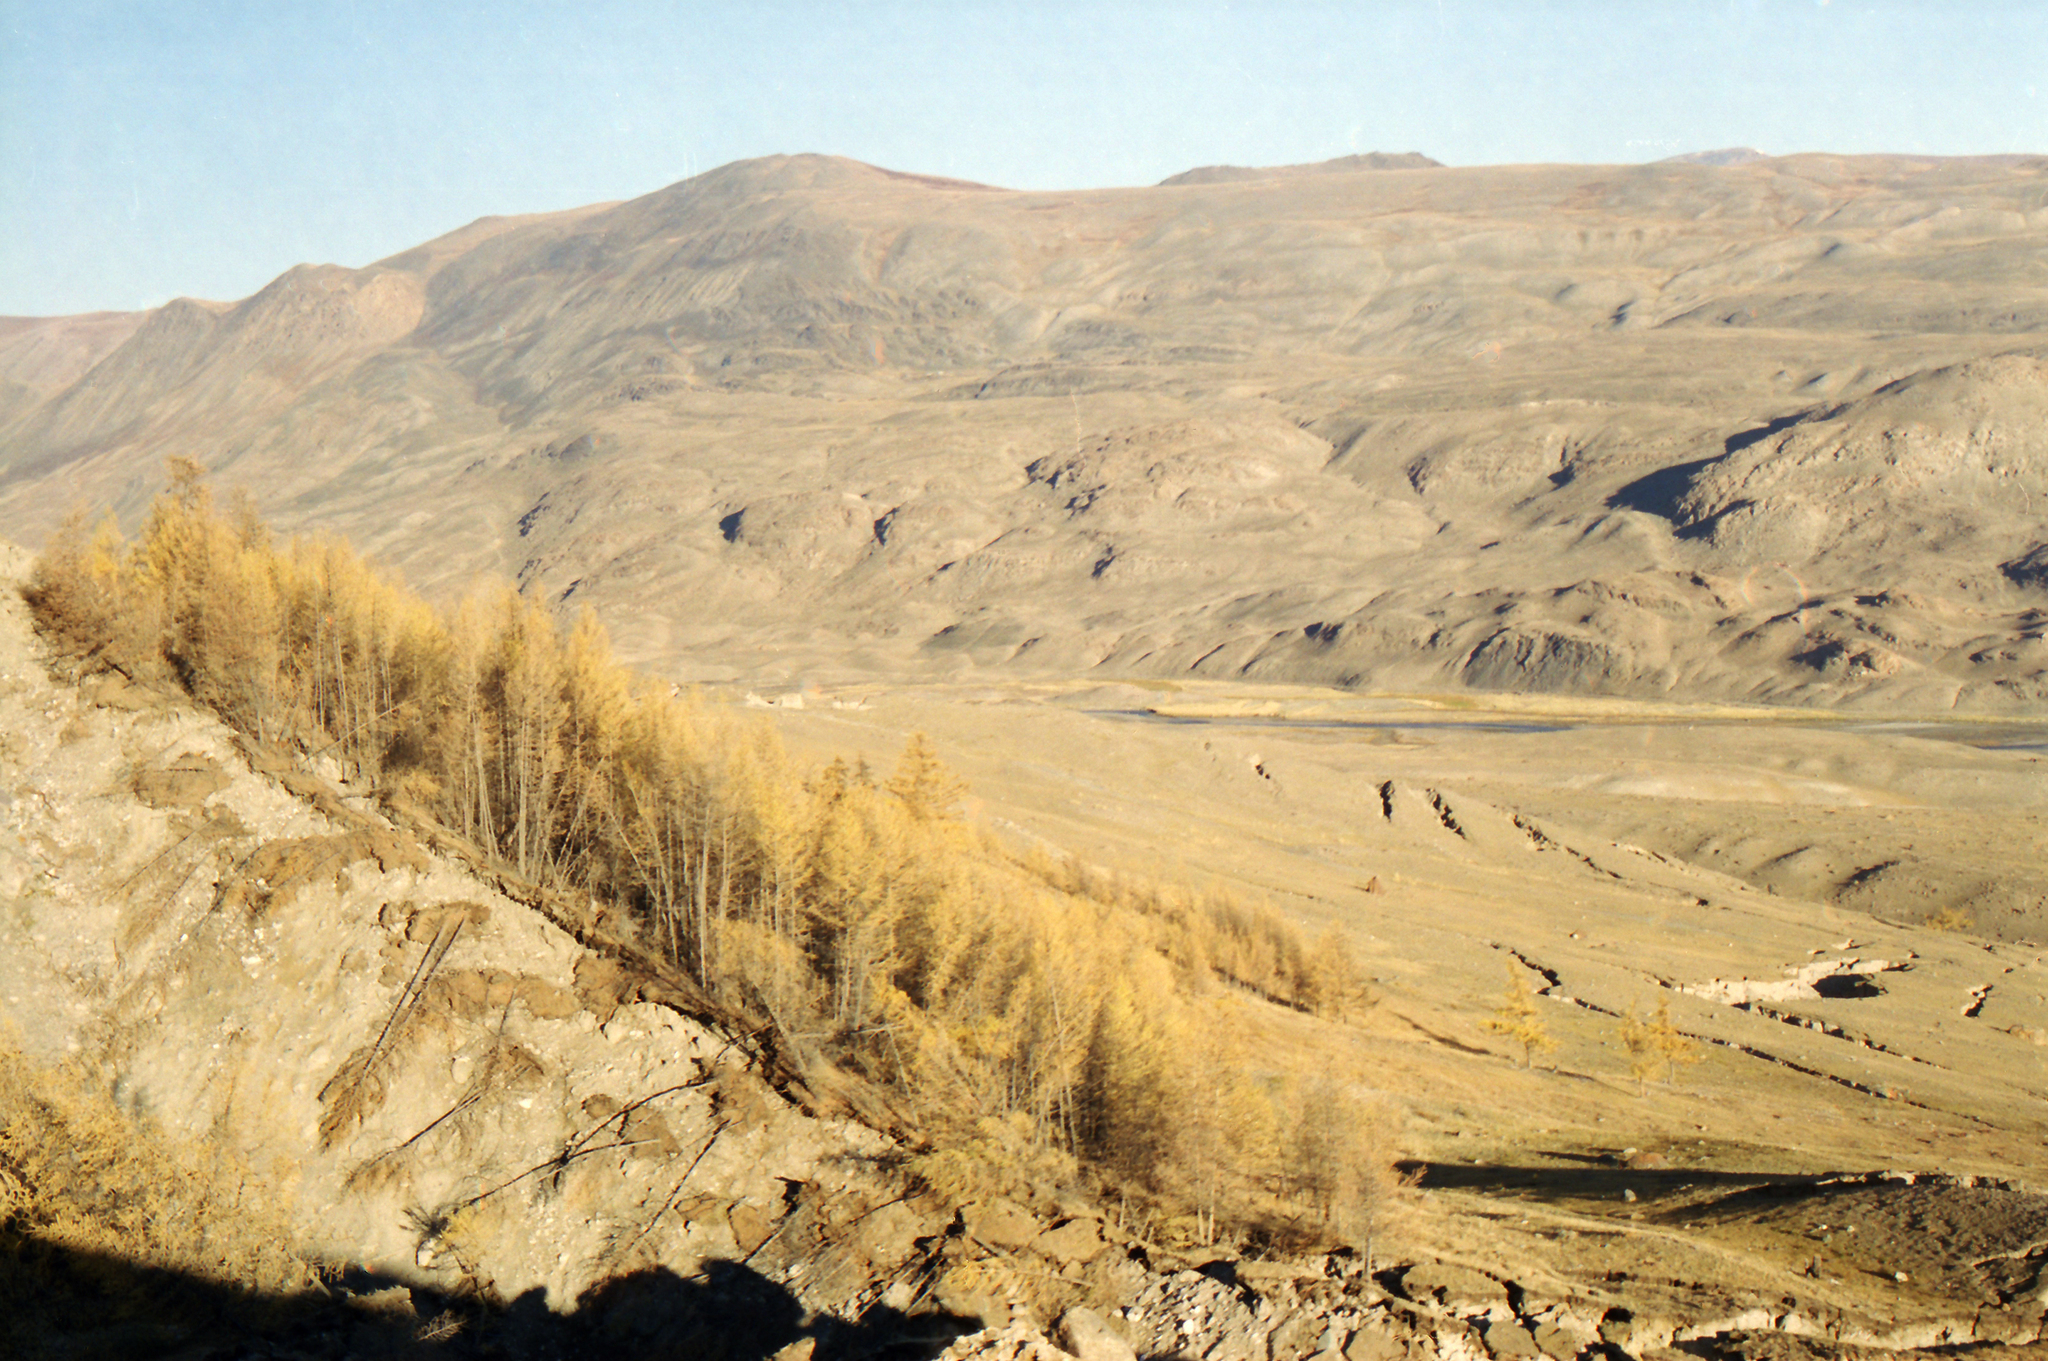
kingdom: Plantae
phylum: Tracheophyta
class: Pinopsida
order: Pinales
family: Pinaceae
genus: Larix
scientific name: Larix sibirica
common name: Siberian larch
